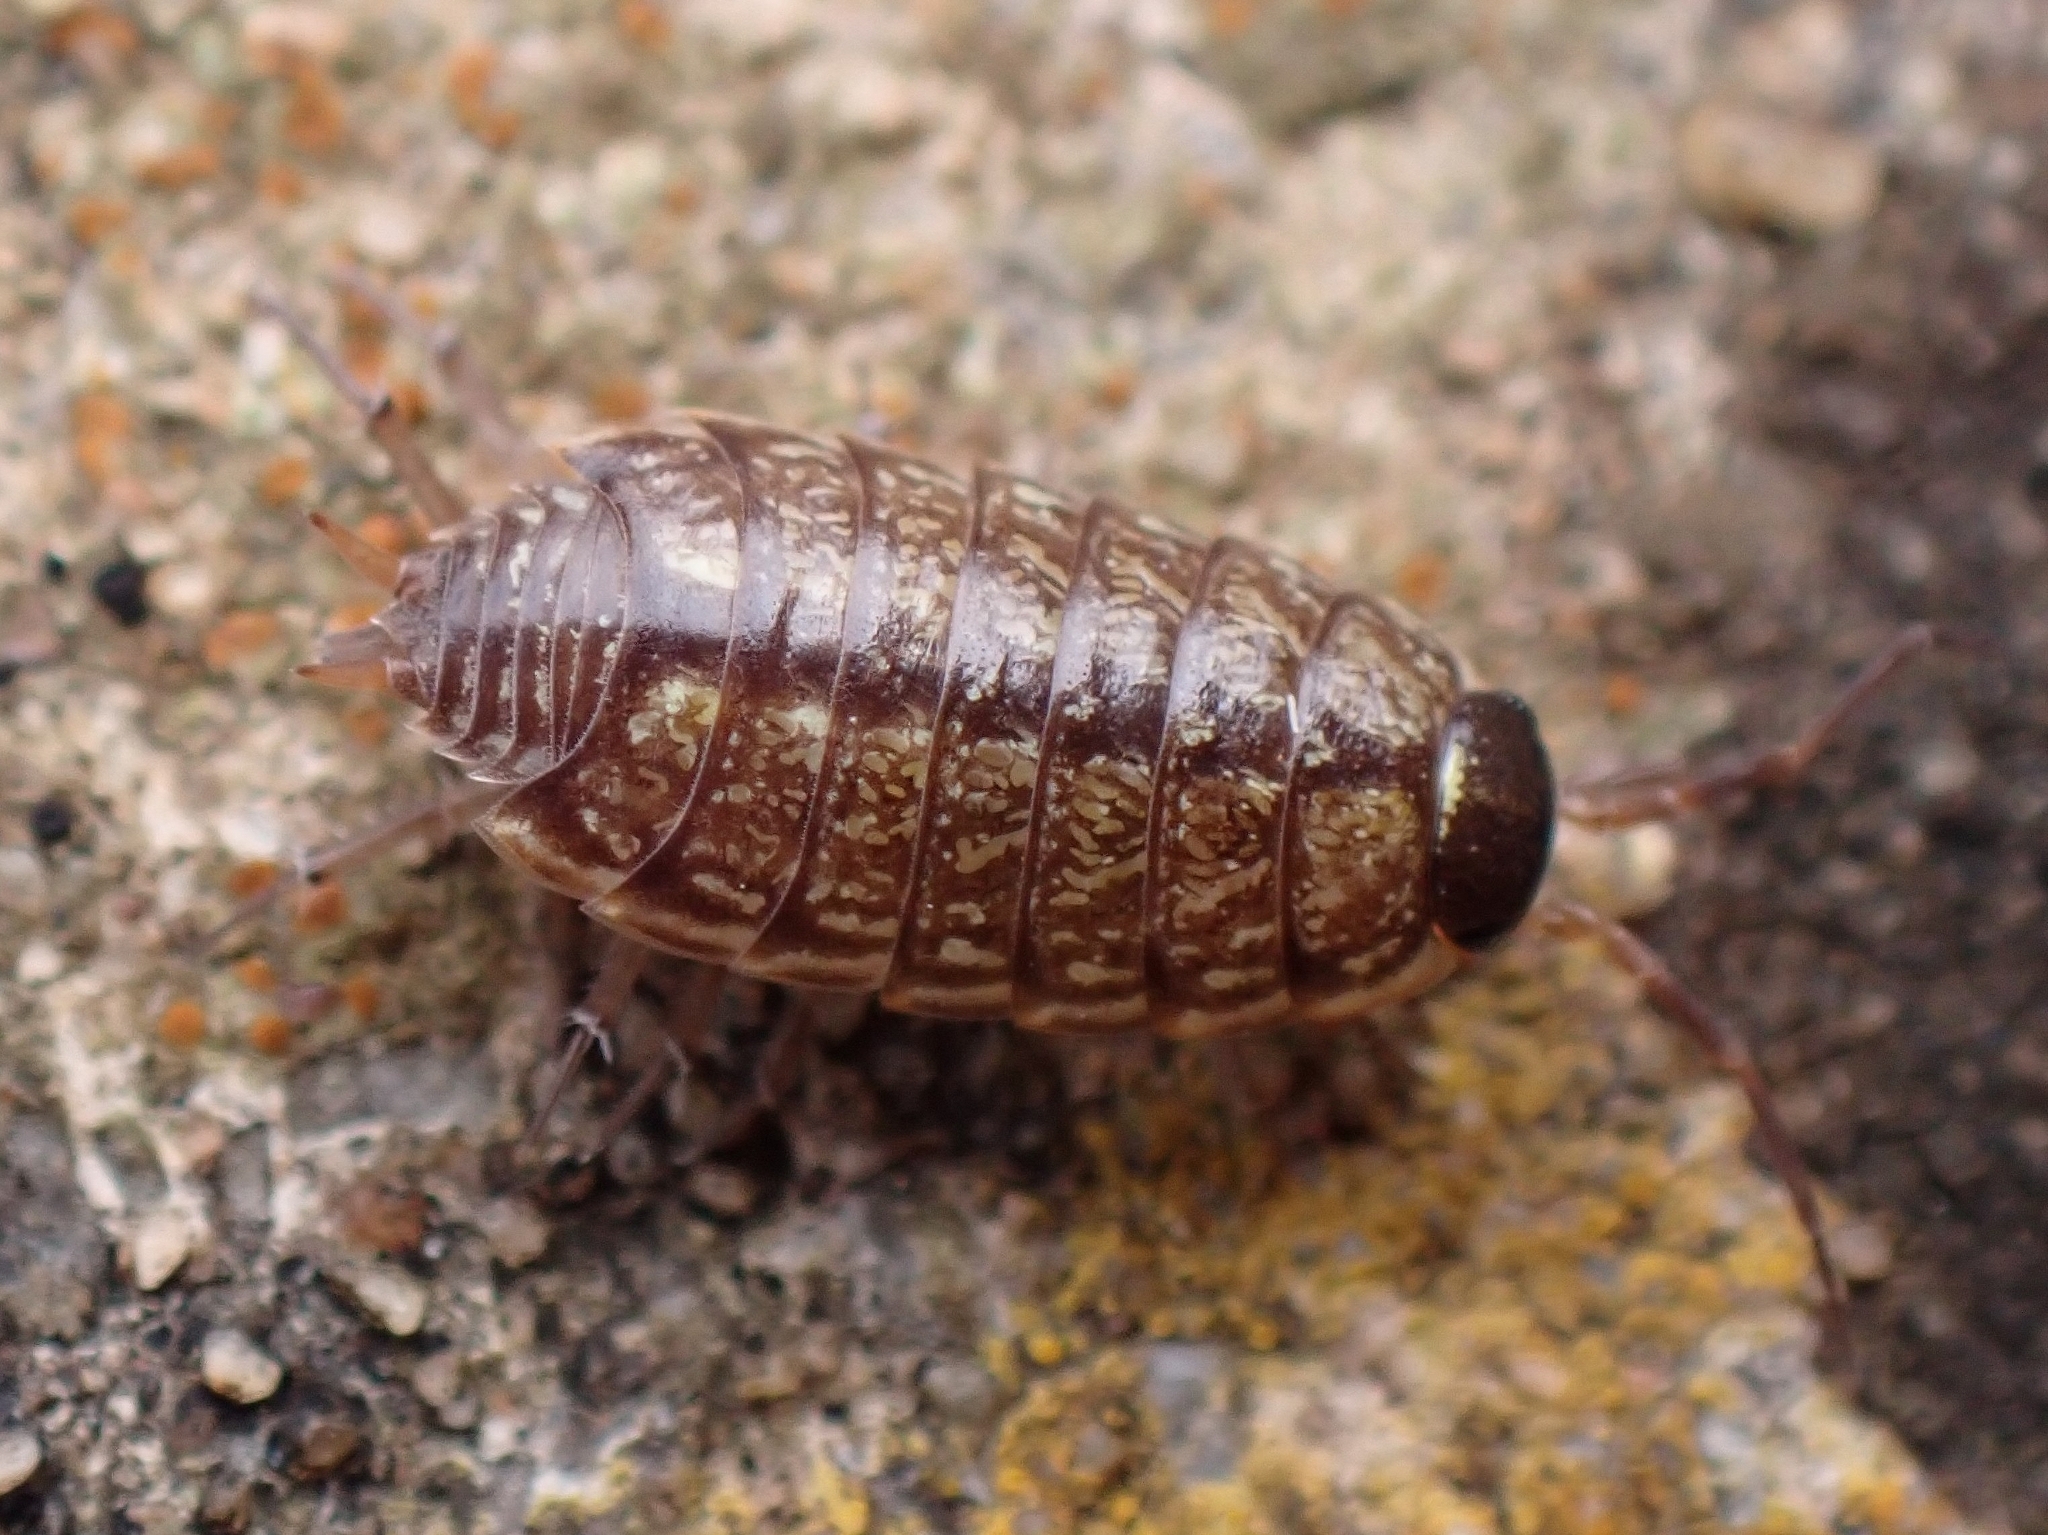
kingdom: Animalia
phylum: Arthropoda
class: Malacostraca
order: Isopoda
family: Philosciidae
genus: Philoscia
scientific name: Philoscia muscorum
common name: Common striped woodlouse
